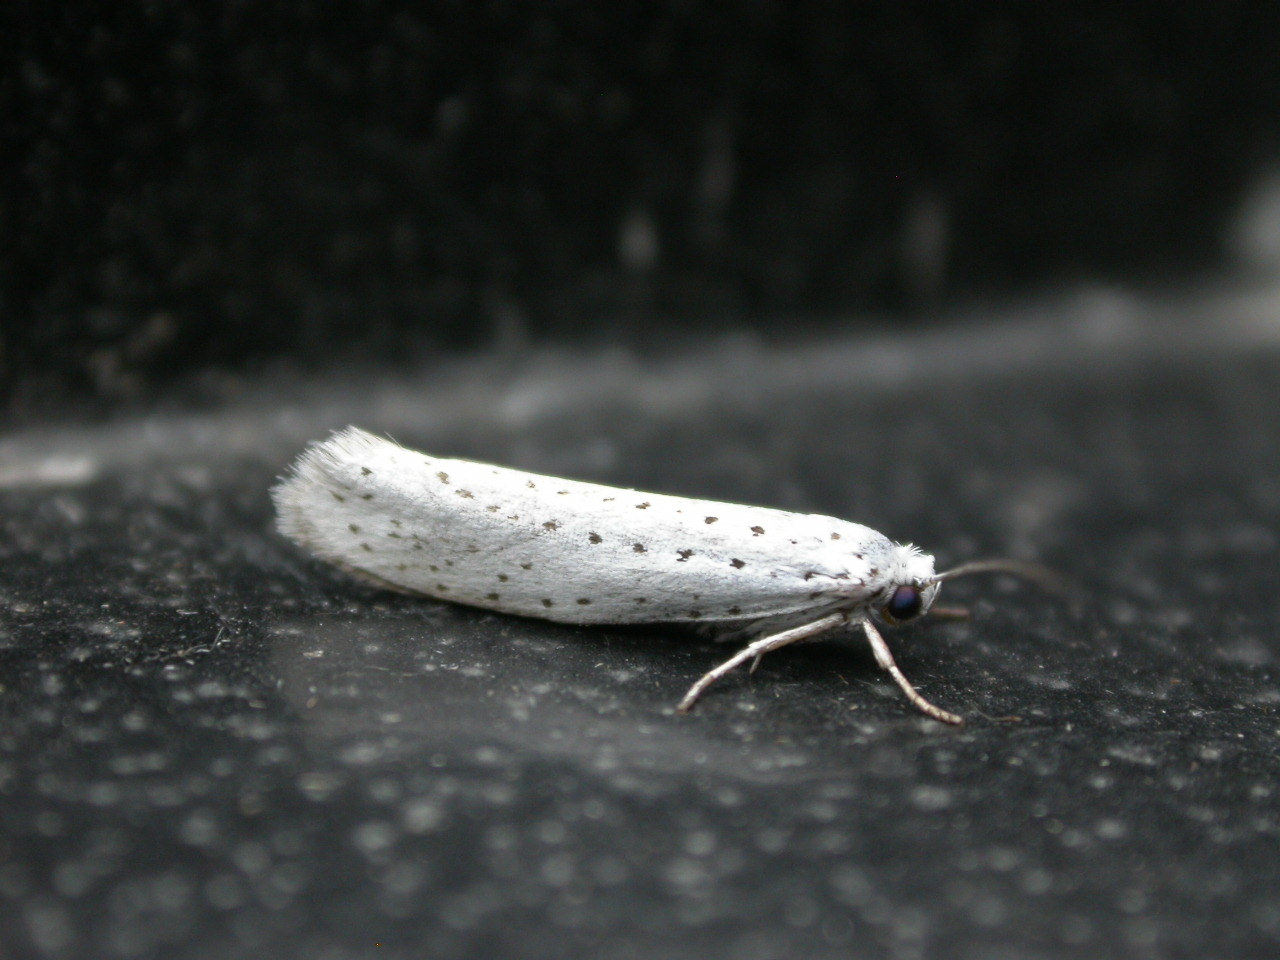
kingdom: Animalia
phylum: Arthropoda
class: Insecta
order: Lepidoptera
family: Yponomeutidae
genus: Yponomeuta
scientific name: Yponomeuta evonymella
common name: Bird-cherry ermine
